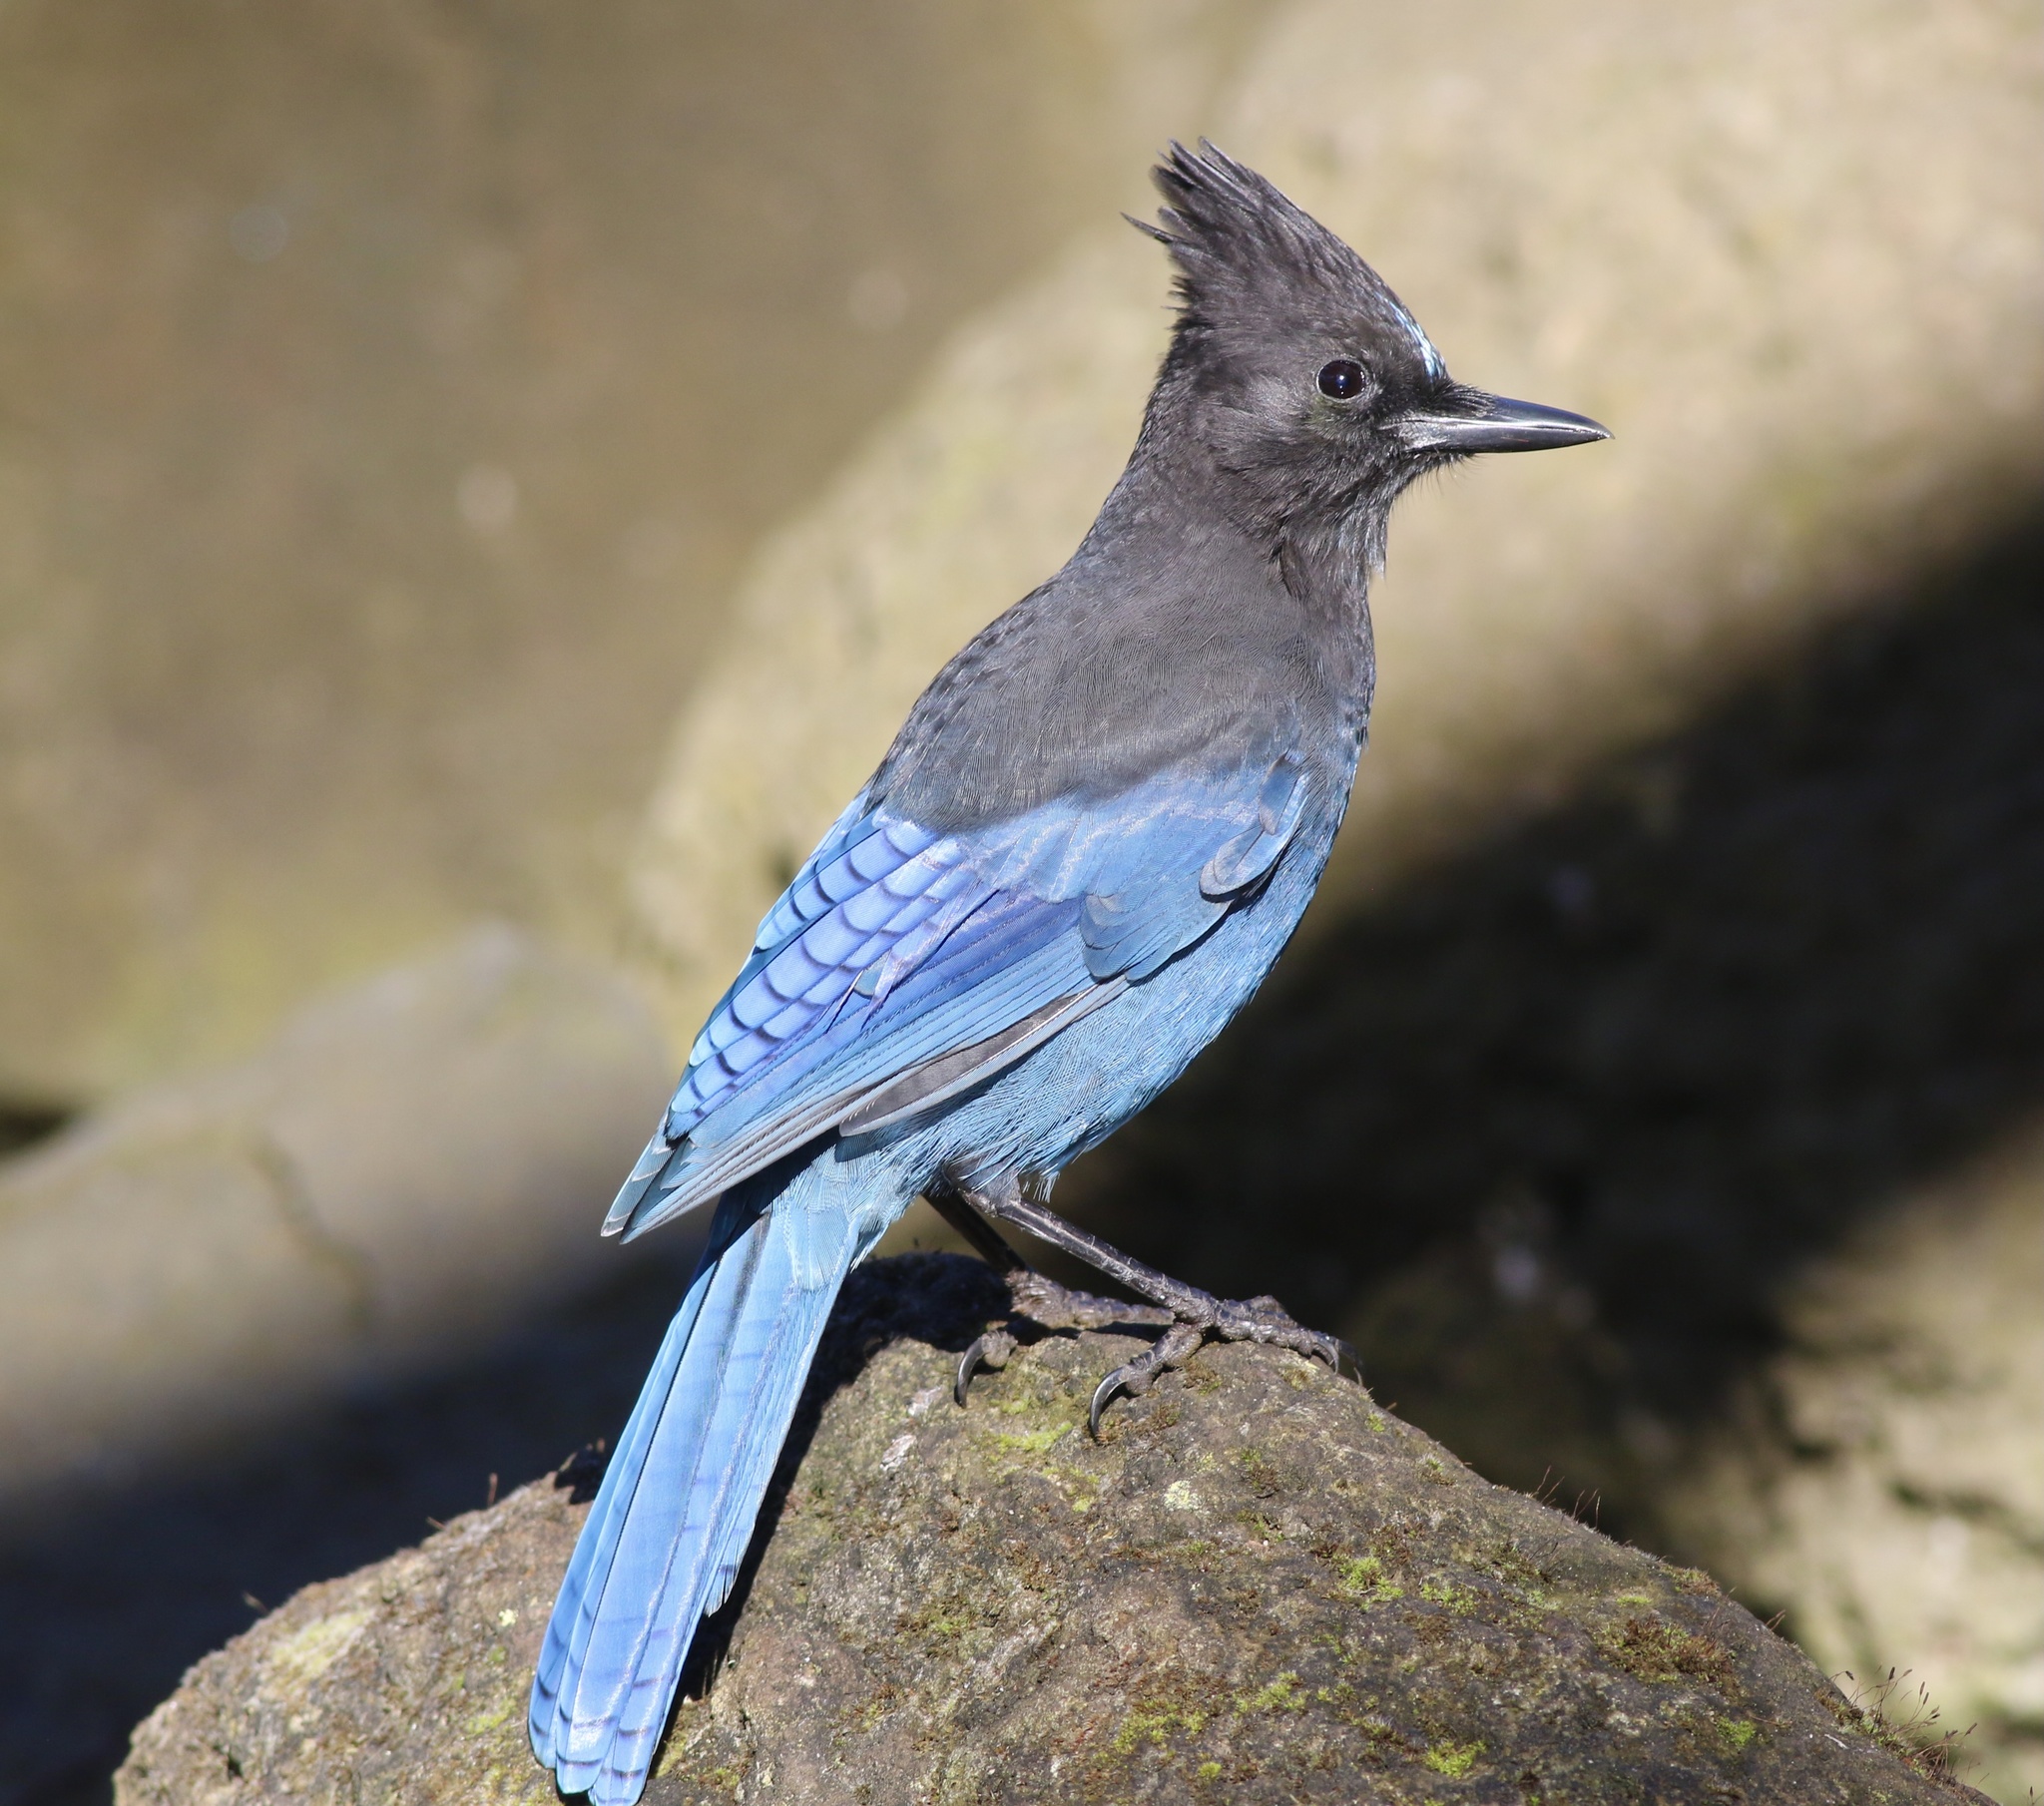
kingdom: Animalia
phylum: Chordata
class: Aves
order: Passeriformes
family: Corvidae
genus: Cyanocitta
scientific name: Cyanocitta stelleri
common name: Steller's jay
